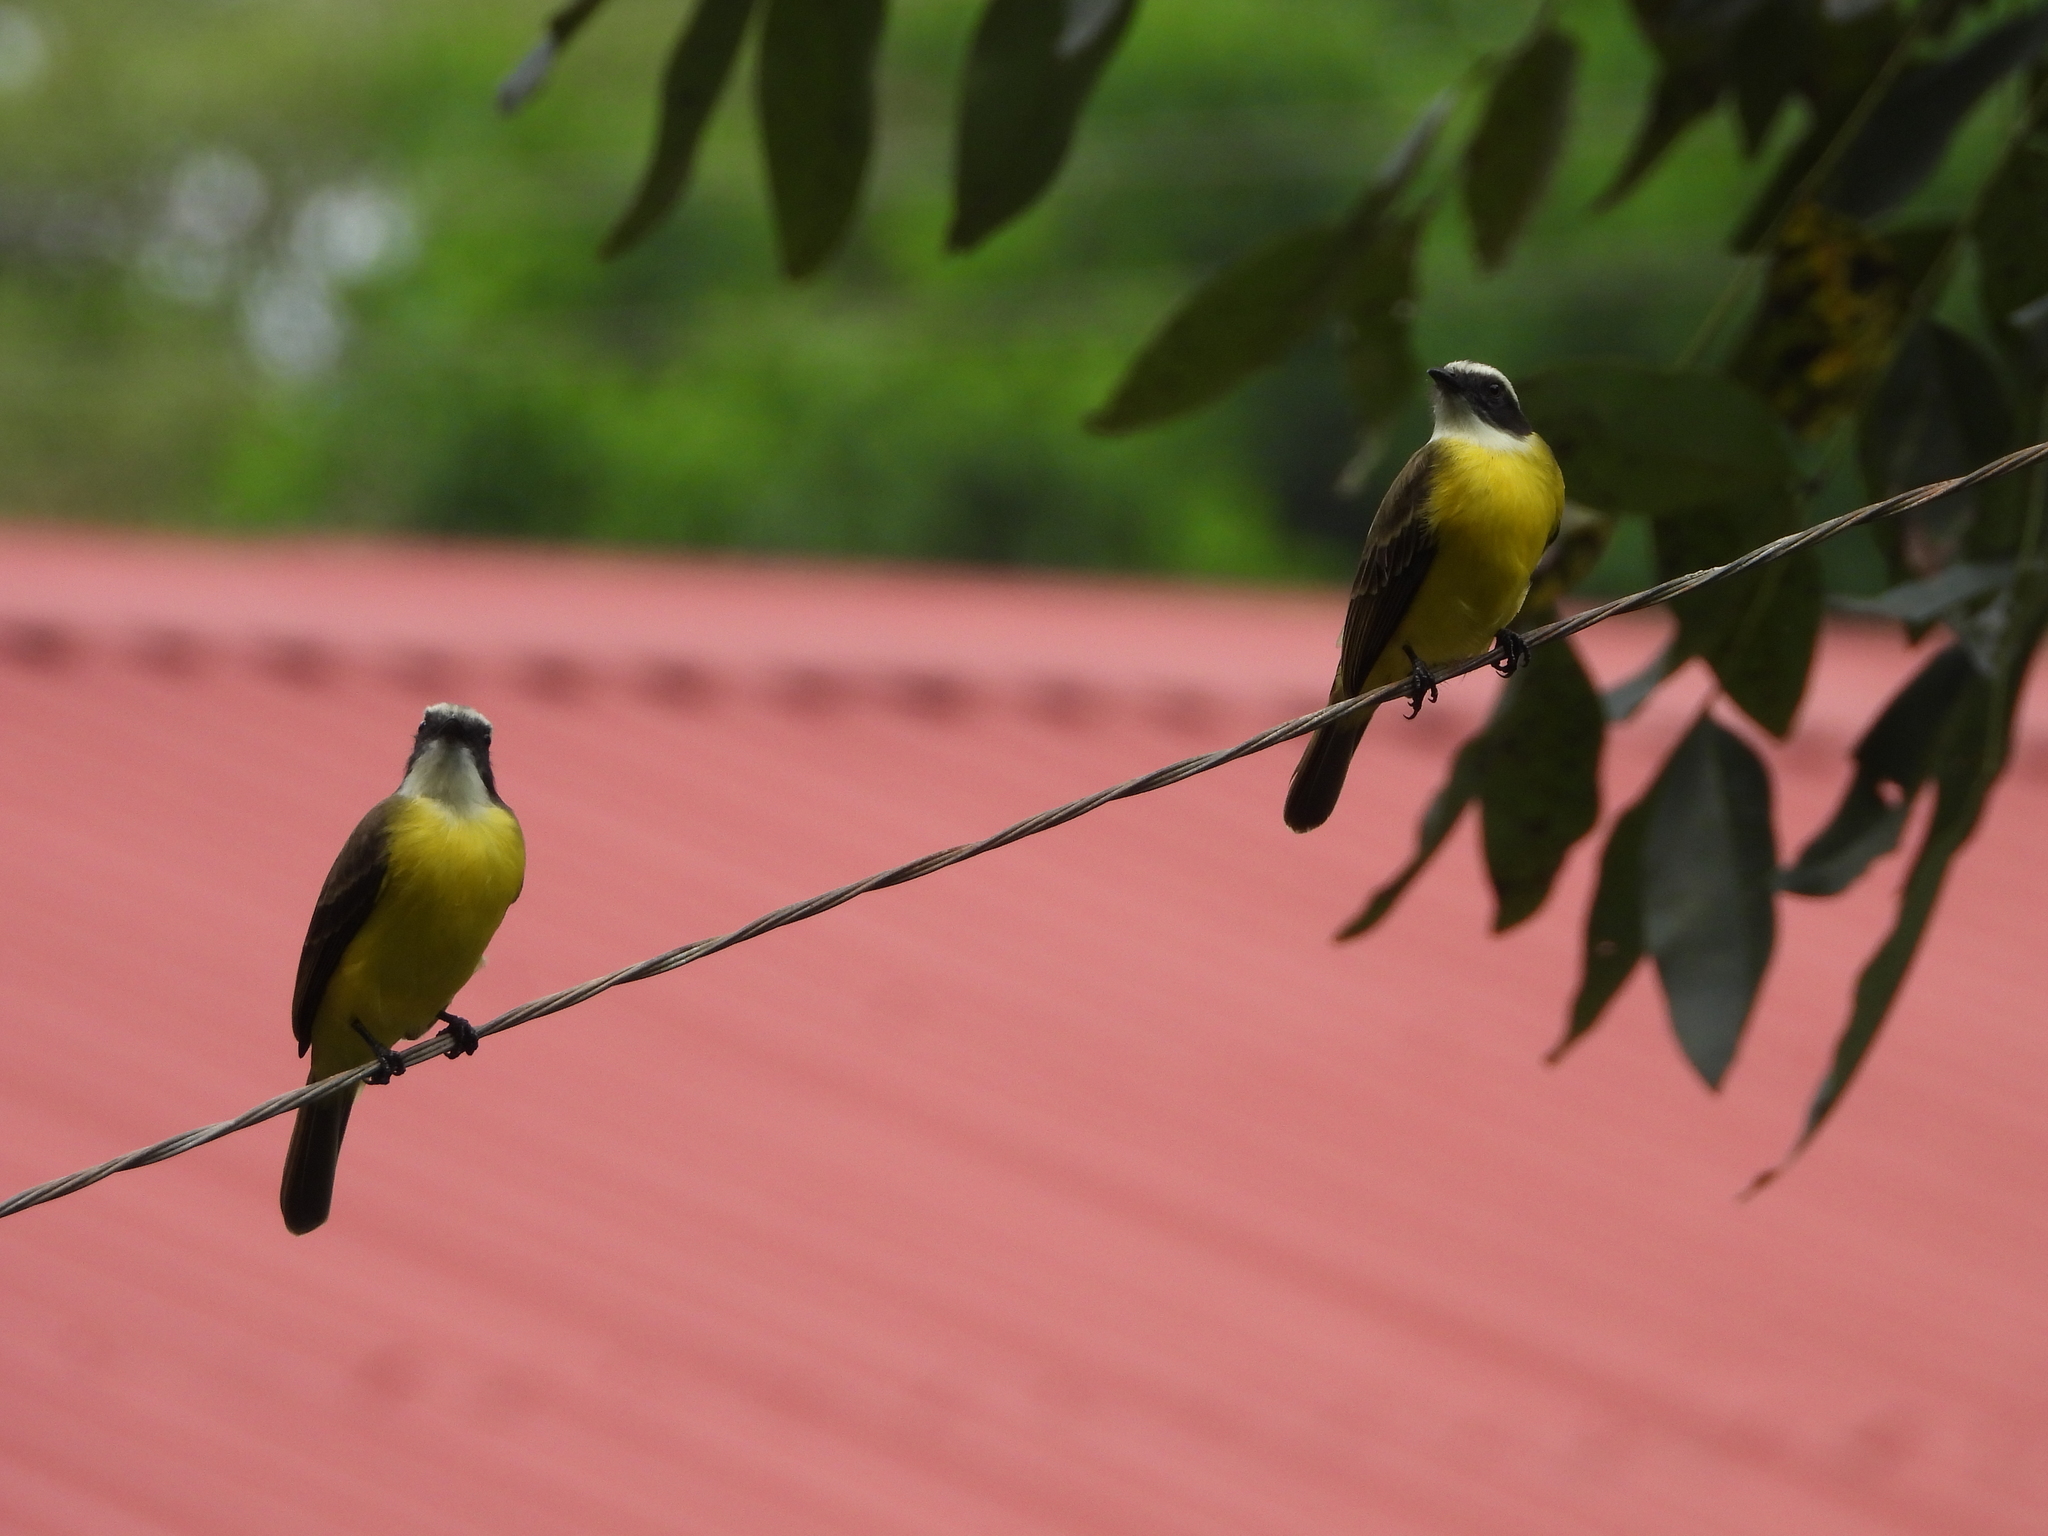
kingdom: Animalia
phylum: Chordata
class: Aves
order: Passeriformes
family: Tyrannidae
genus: Myiozetetes
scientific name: Myiozetetes similis
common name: Social flycatcher
